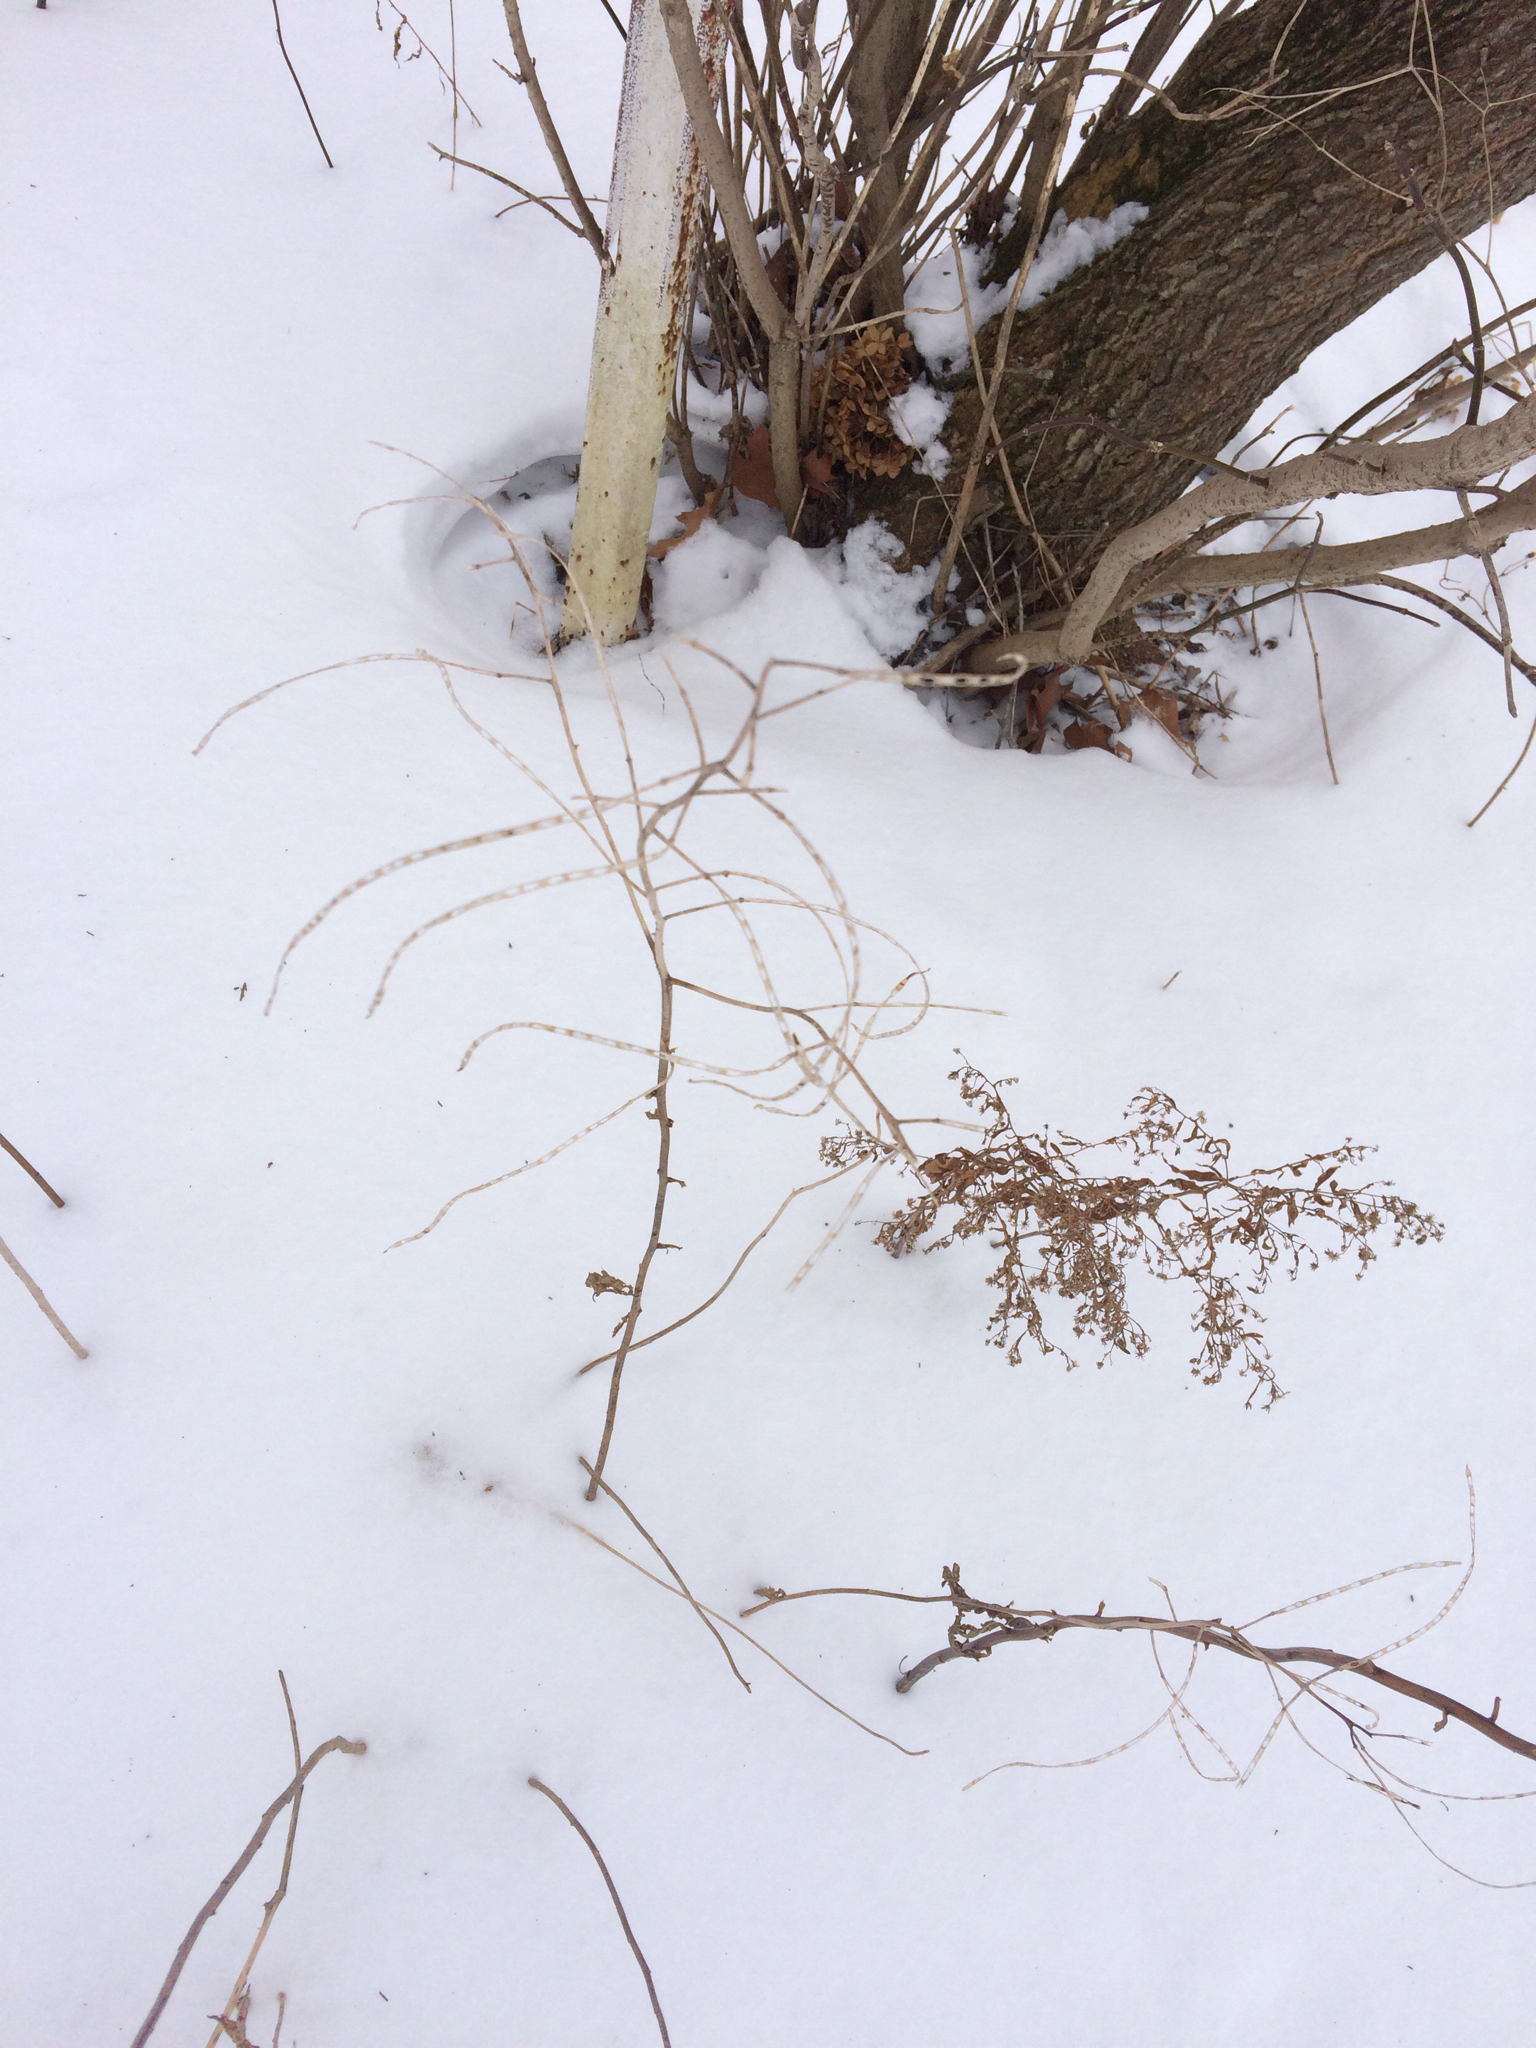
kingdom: Plantae
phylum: Tracheophyta
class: Magnoliopsida
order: Brassicales
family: Brassicaceae
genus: Alliaria
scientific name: Alliaria petiolata
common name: Garlic mustard
